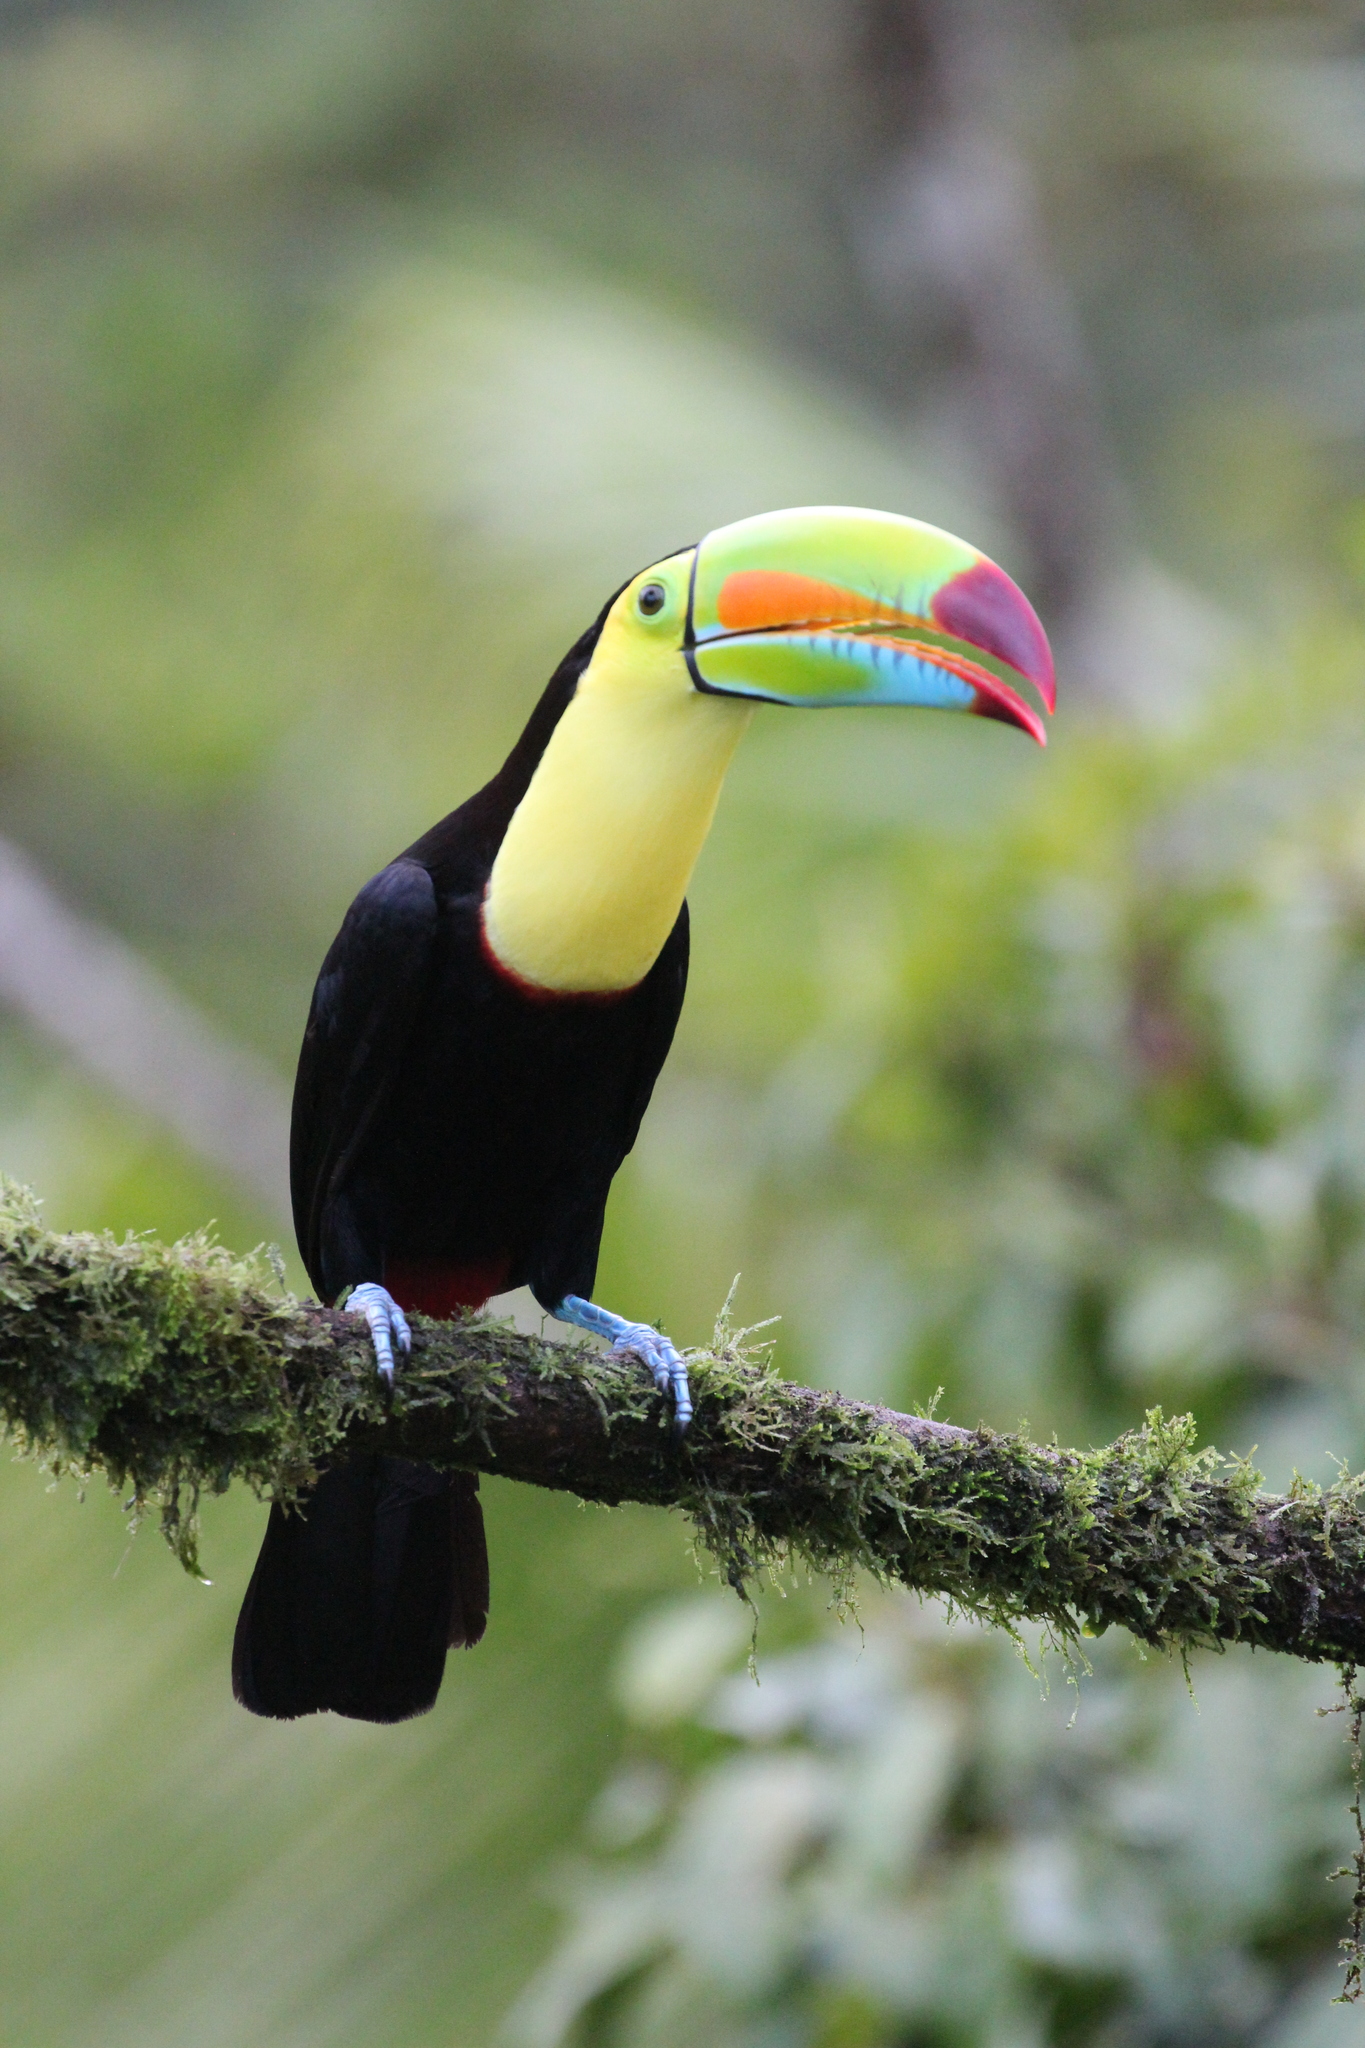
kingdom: Animalia
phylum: Chordata
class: Aves
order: Piciformes
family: Ramphastidae
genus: Ramphastos
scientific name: Ramphastos sulfuratus
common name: Keel-billed toucan
